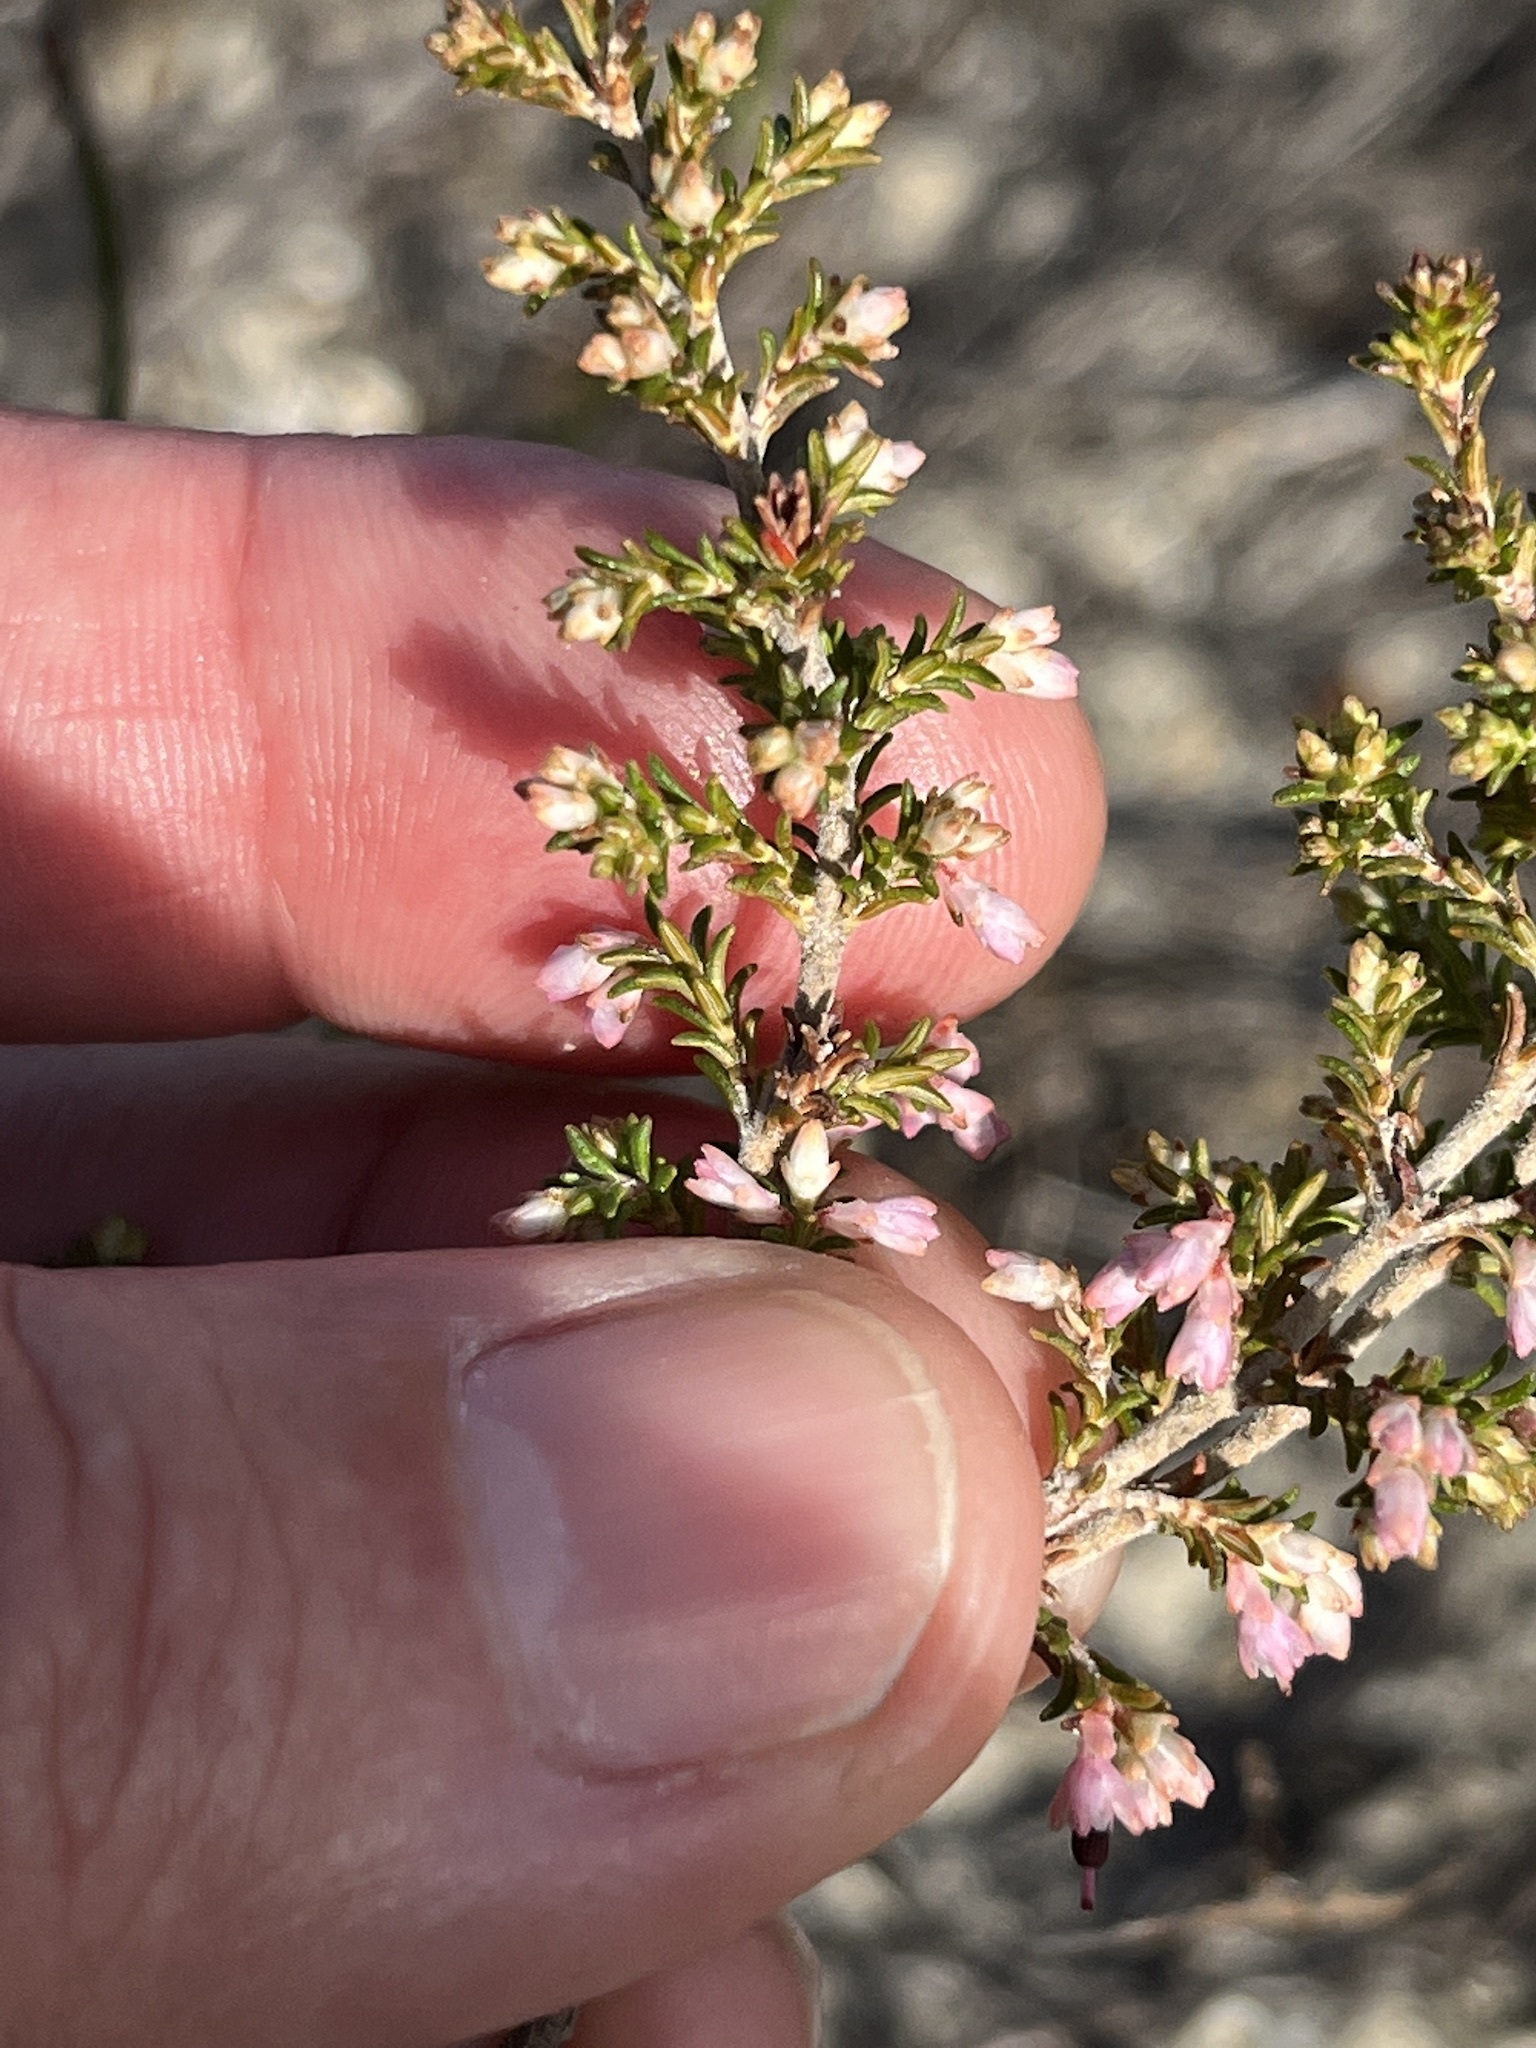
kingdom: Plantae
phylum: Tracheophyta
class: Magnoliopsida
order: Ericales
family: Ericaceae
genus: Erica
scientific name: Erica placentiflora
